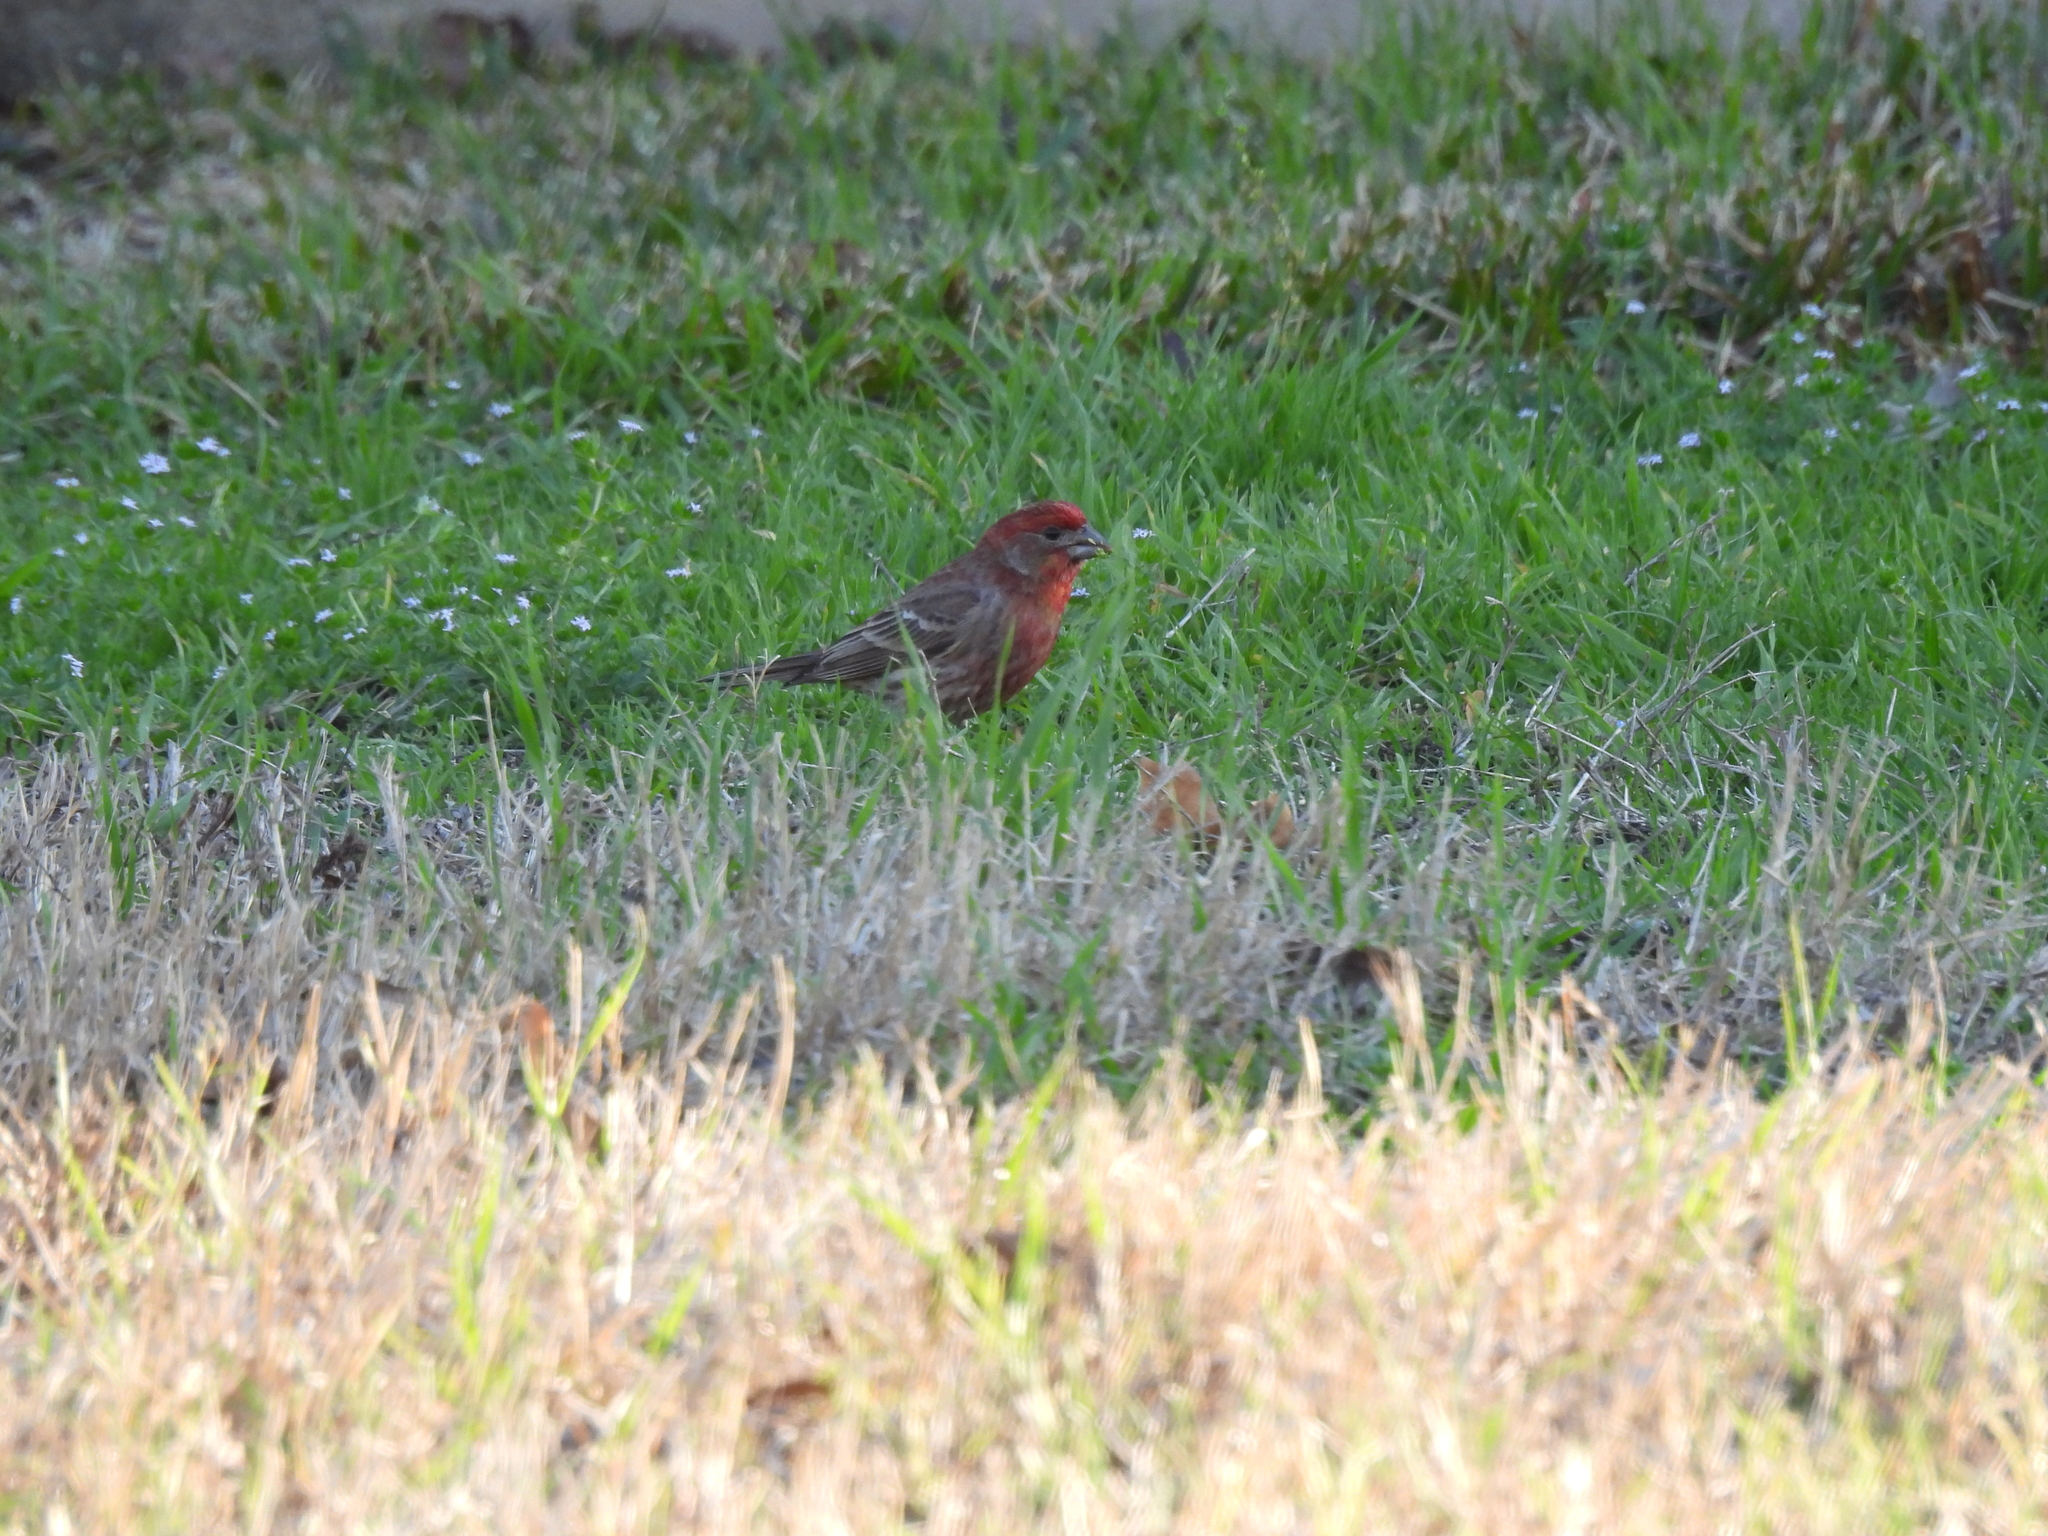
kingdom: Animalia
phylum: Chordata
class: Aves
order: Passeriformes
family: Fringillidae
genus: Haemorhous
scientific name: Haemorhous mexicanus
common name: House finch
